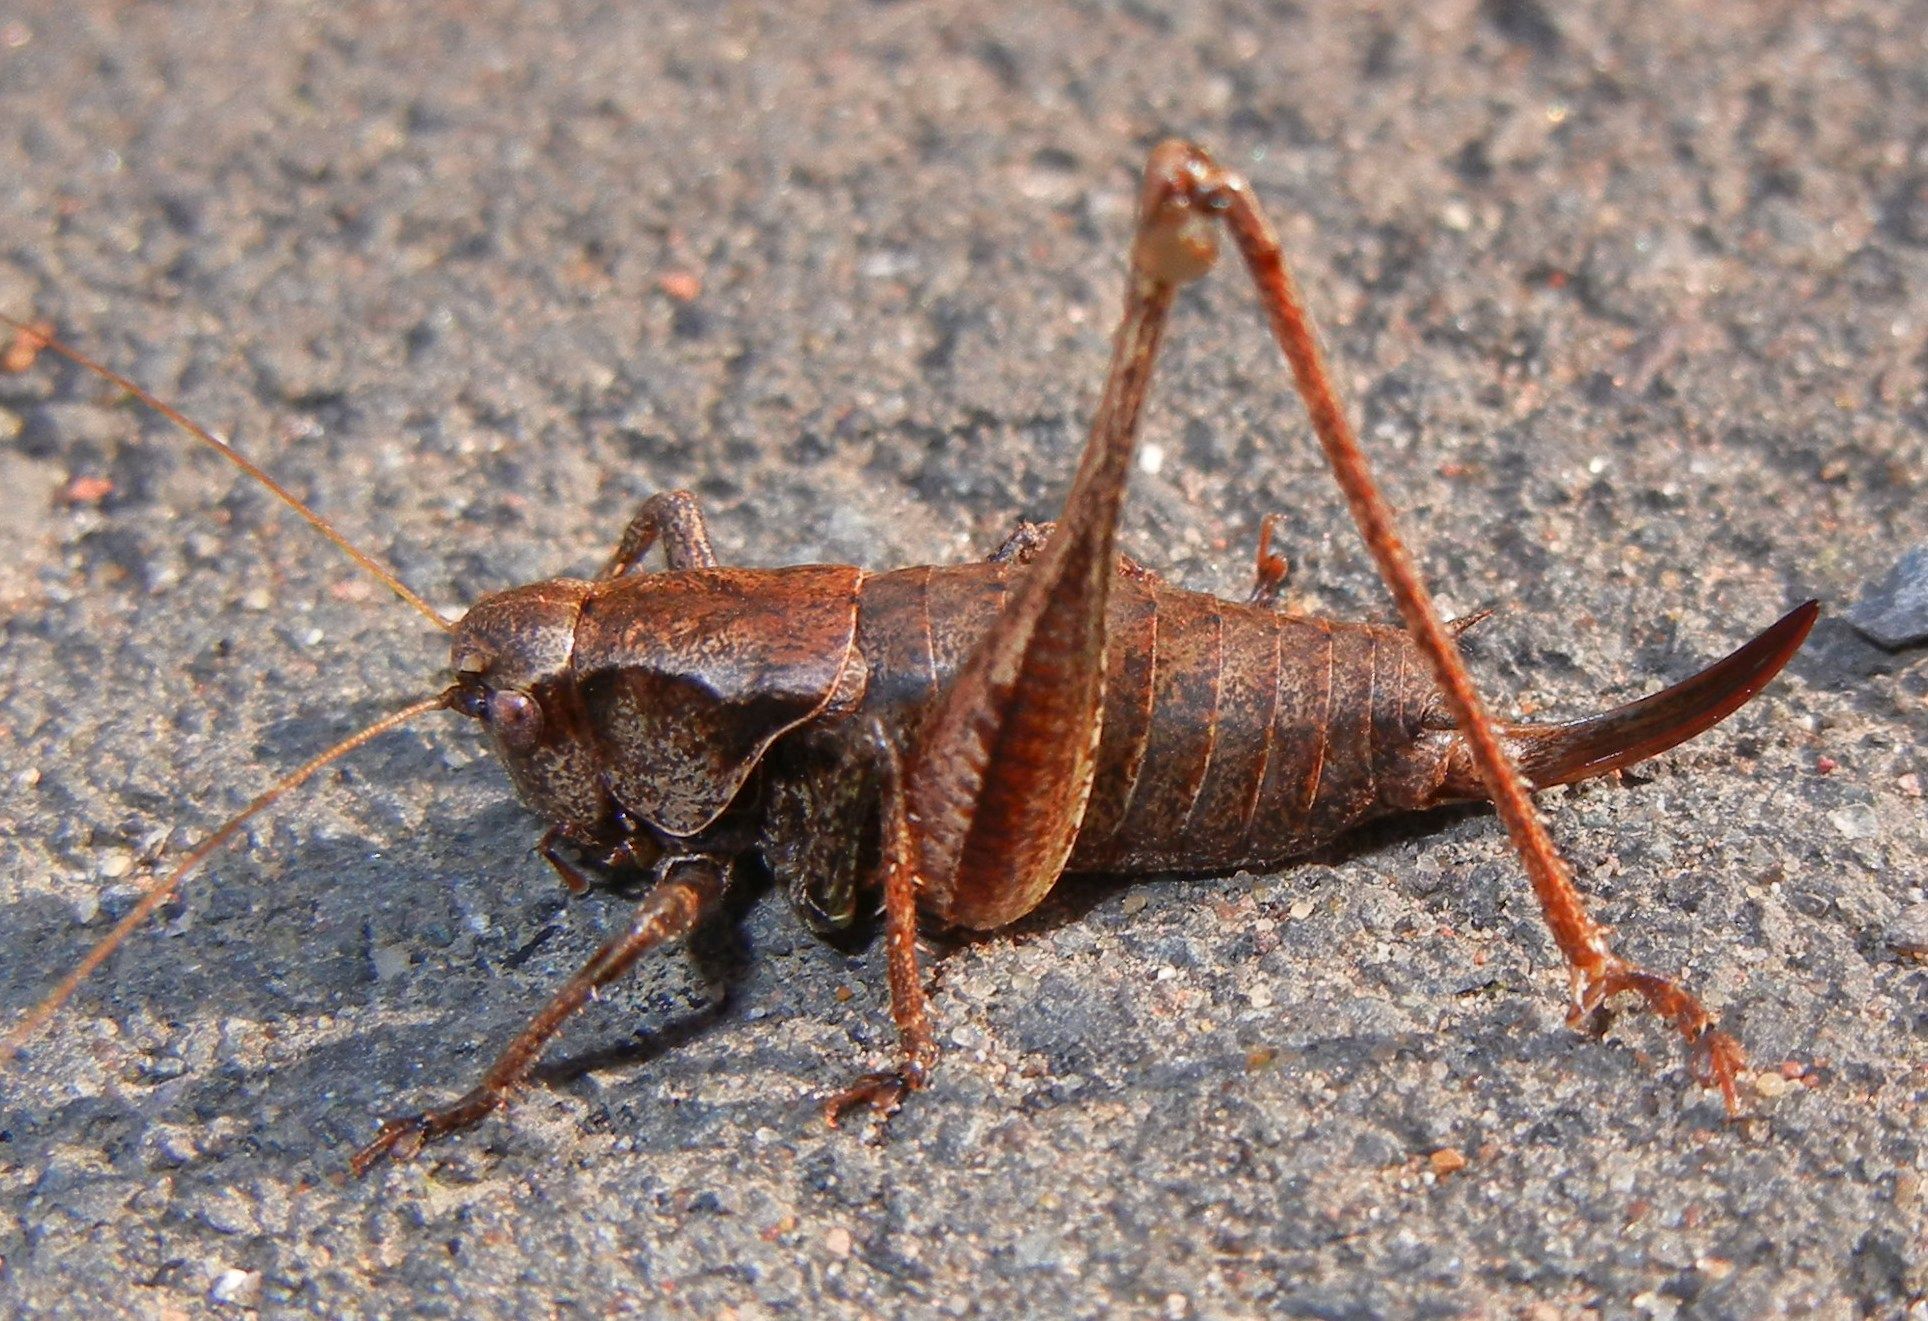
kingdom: Animalia
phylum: Arthropoda
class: Insecta
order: Orthoptera
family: Tettigoniidae
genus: Pholidoptera
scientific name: Pholidoptera griseoaptera
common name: Dark bush-cricket
